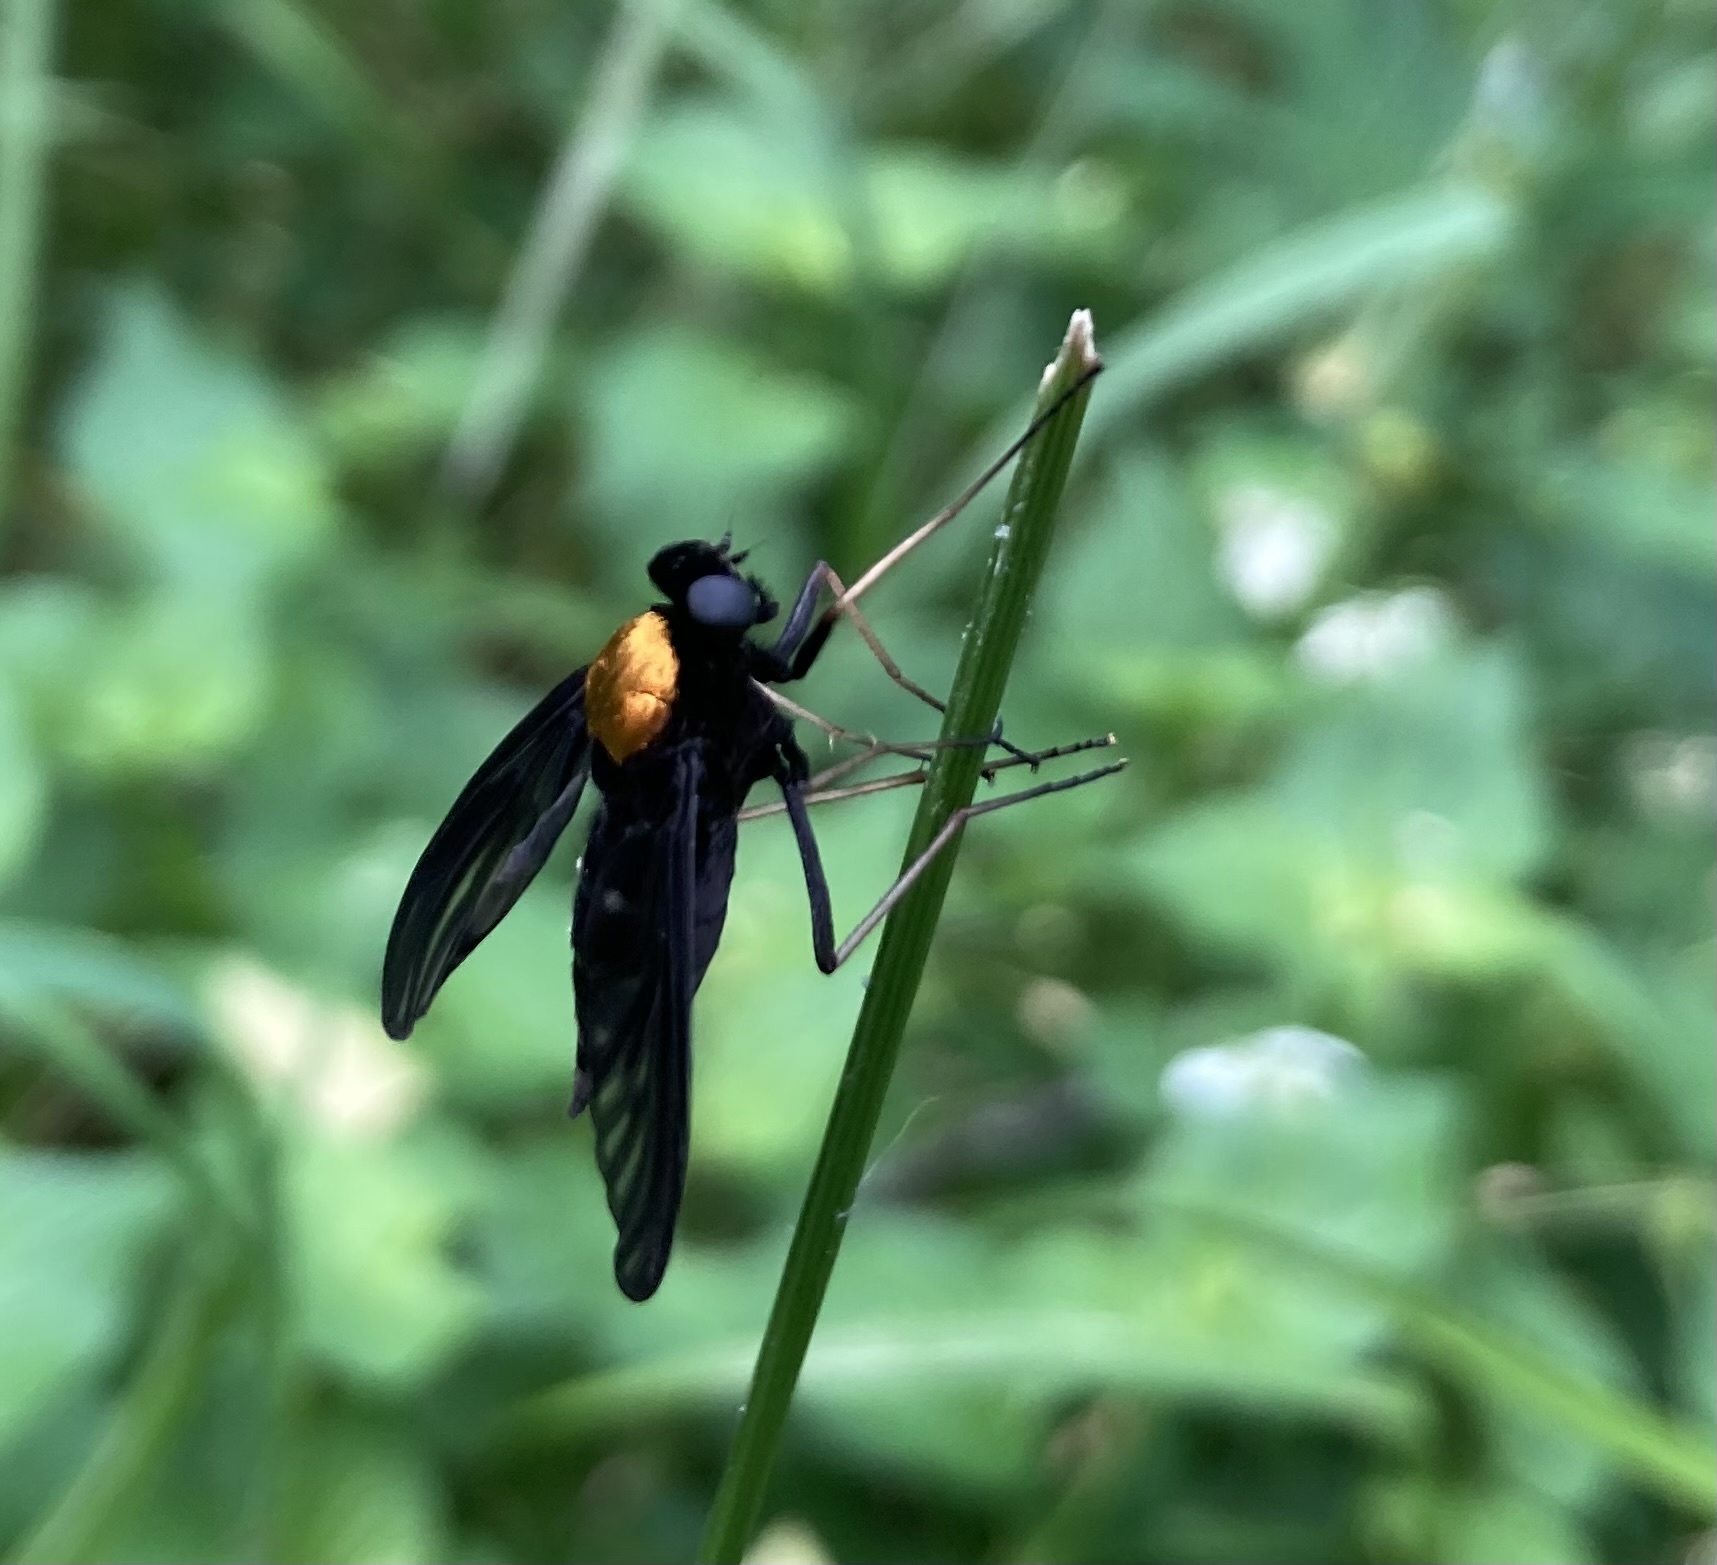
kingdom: Animalia
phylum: Arthropoda
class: Insecta
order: Diptera
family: Rhagionidae
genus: Chrysopilus
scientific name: Chrysopilus thoracicus
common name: Golden-backed snipe fly
